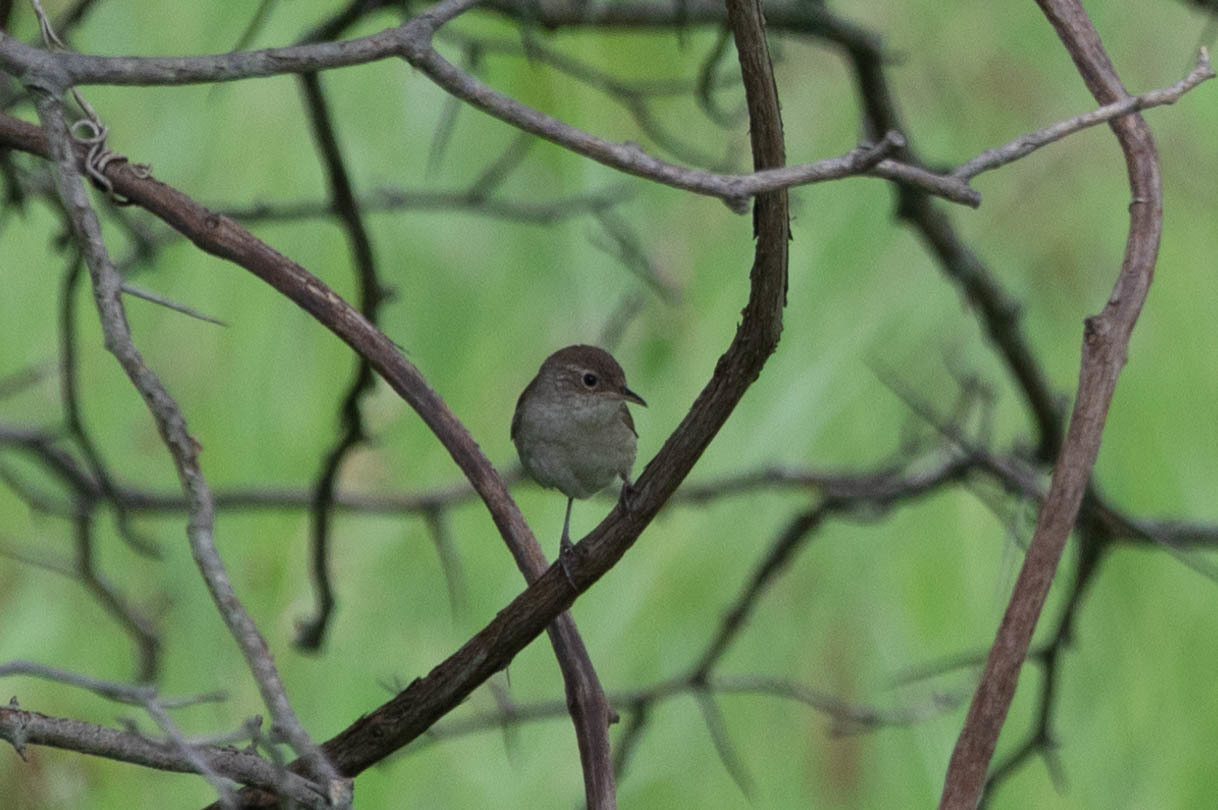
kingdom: Animalia
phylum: Chordata
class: Aves
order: Passeriformes
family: Troglodytidae
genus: Troglodytes
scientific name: Troglodytes aedon
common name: House wren
